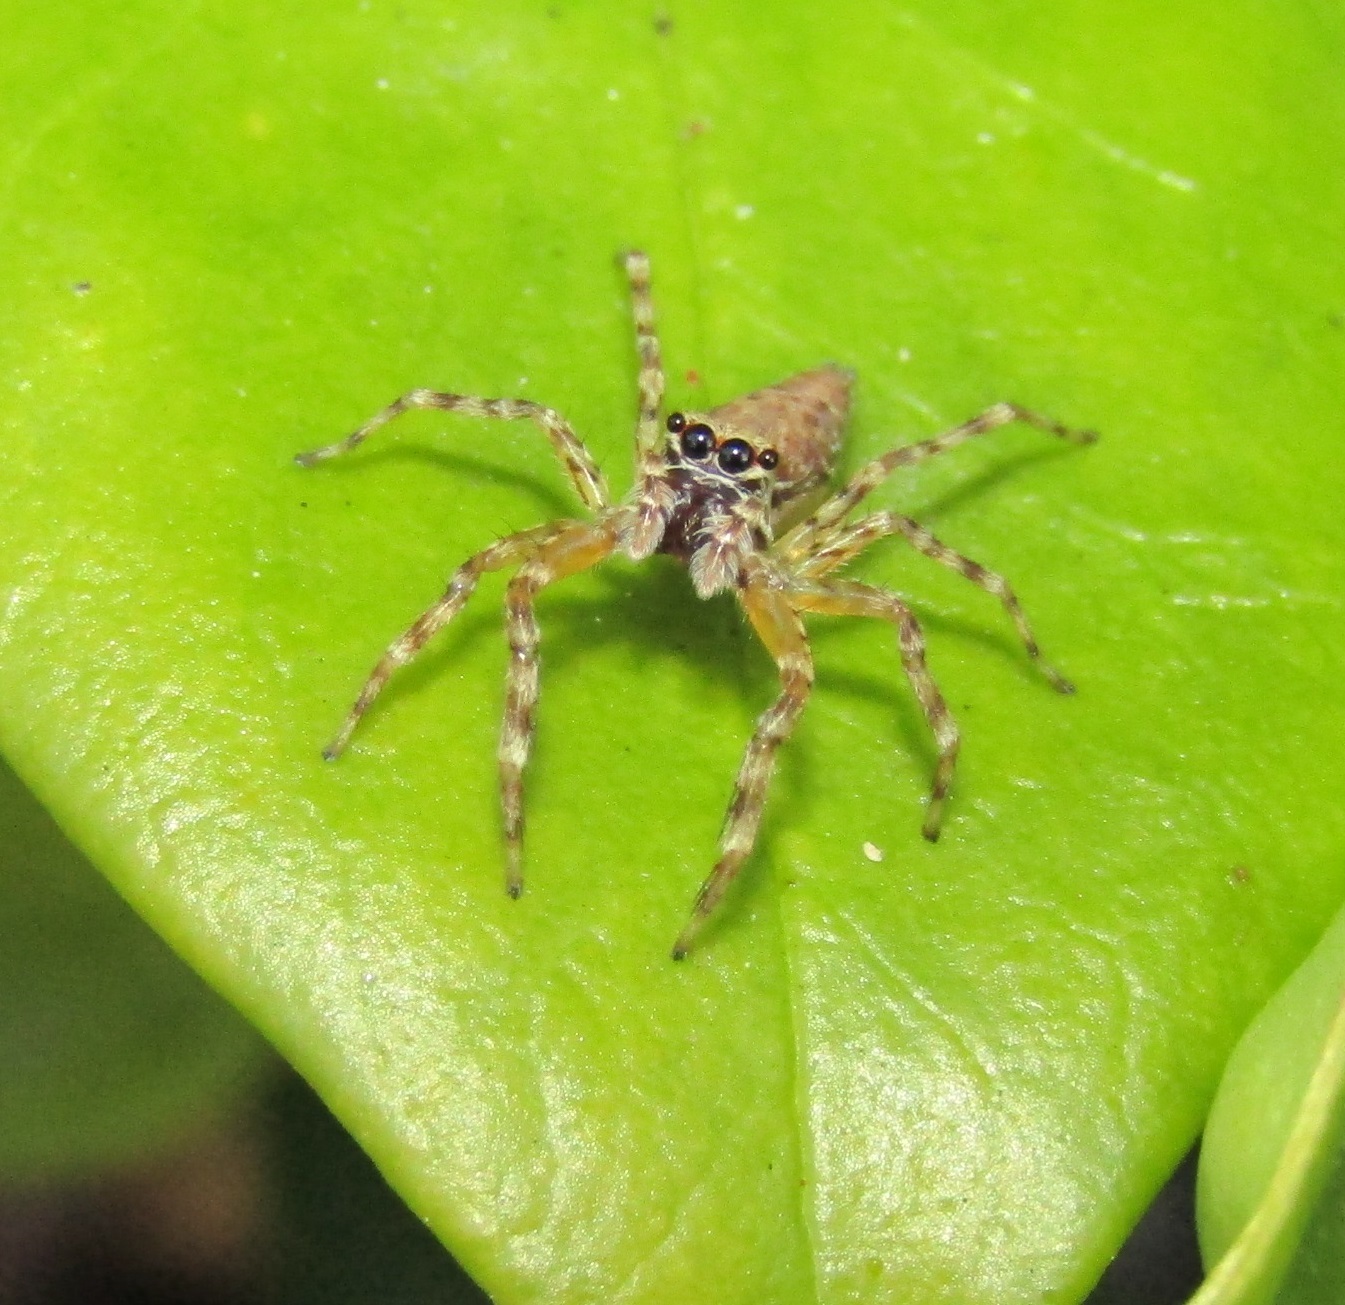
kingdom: Animalia
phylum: Arthropoda
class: Arachnida
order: Araneae
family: Salticidae
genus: Helpis
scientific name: Helpis minitabunda
